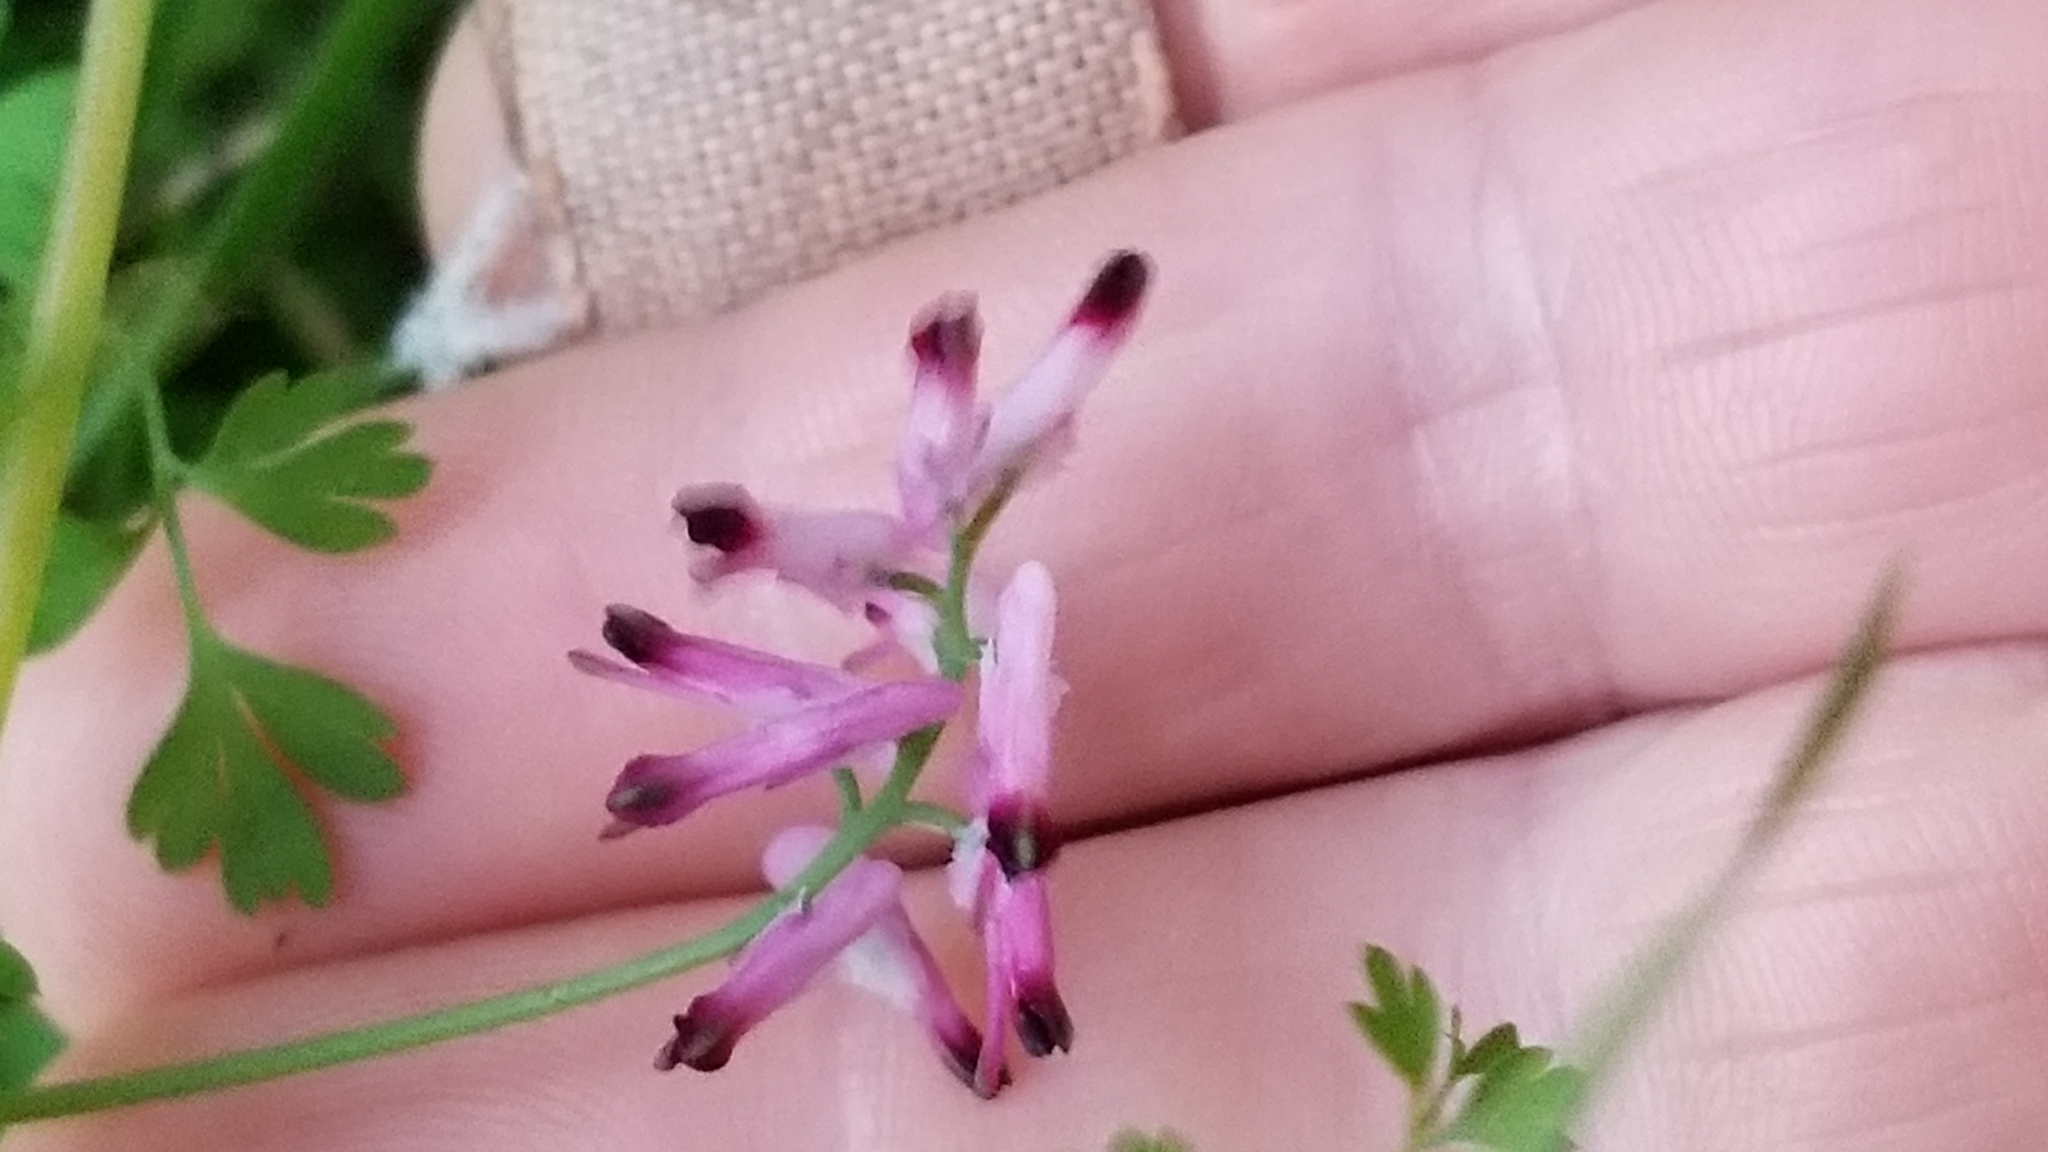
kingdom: Plantae
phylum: Tracheophyta
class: Magnoliopsida
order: Ranunculales
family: Papaveraceae
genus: Fumaria
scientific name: Fumaria muralis
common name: Common ramping-fumitory
